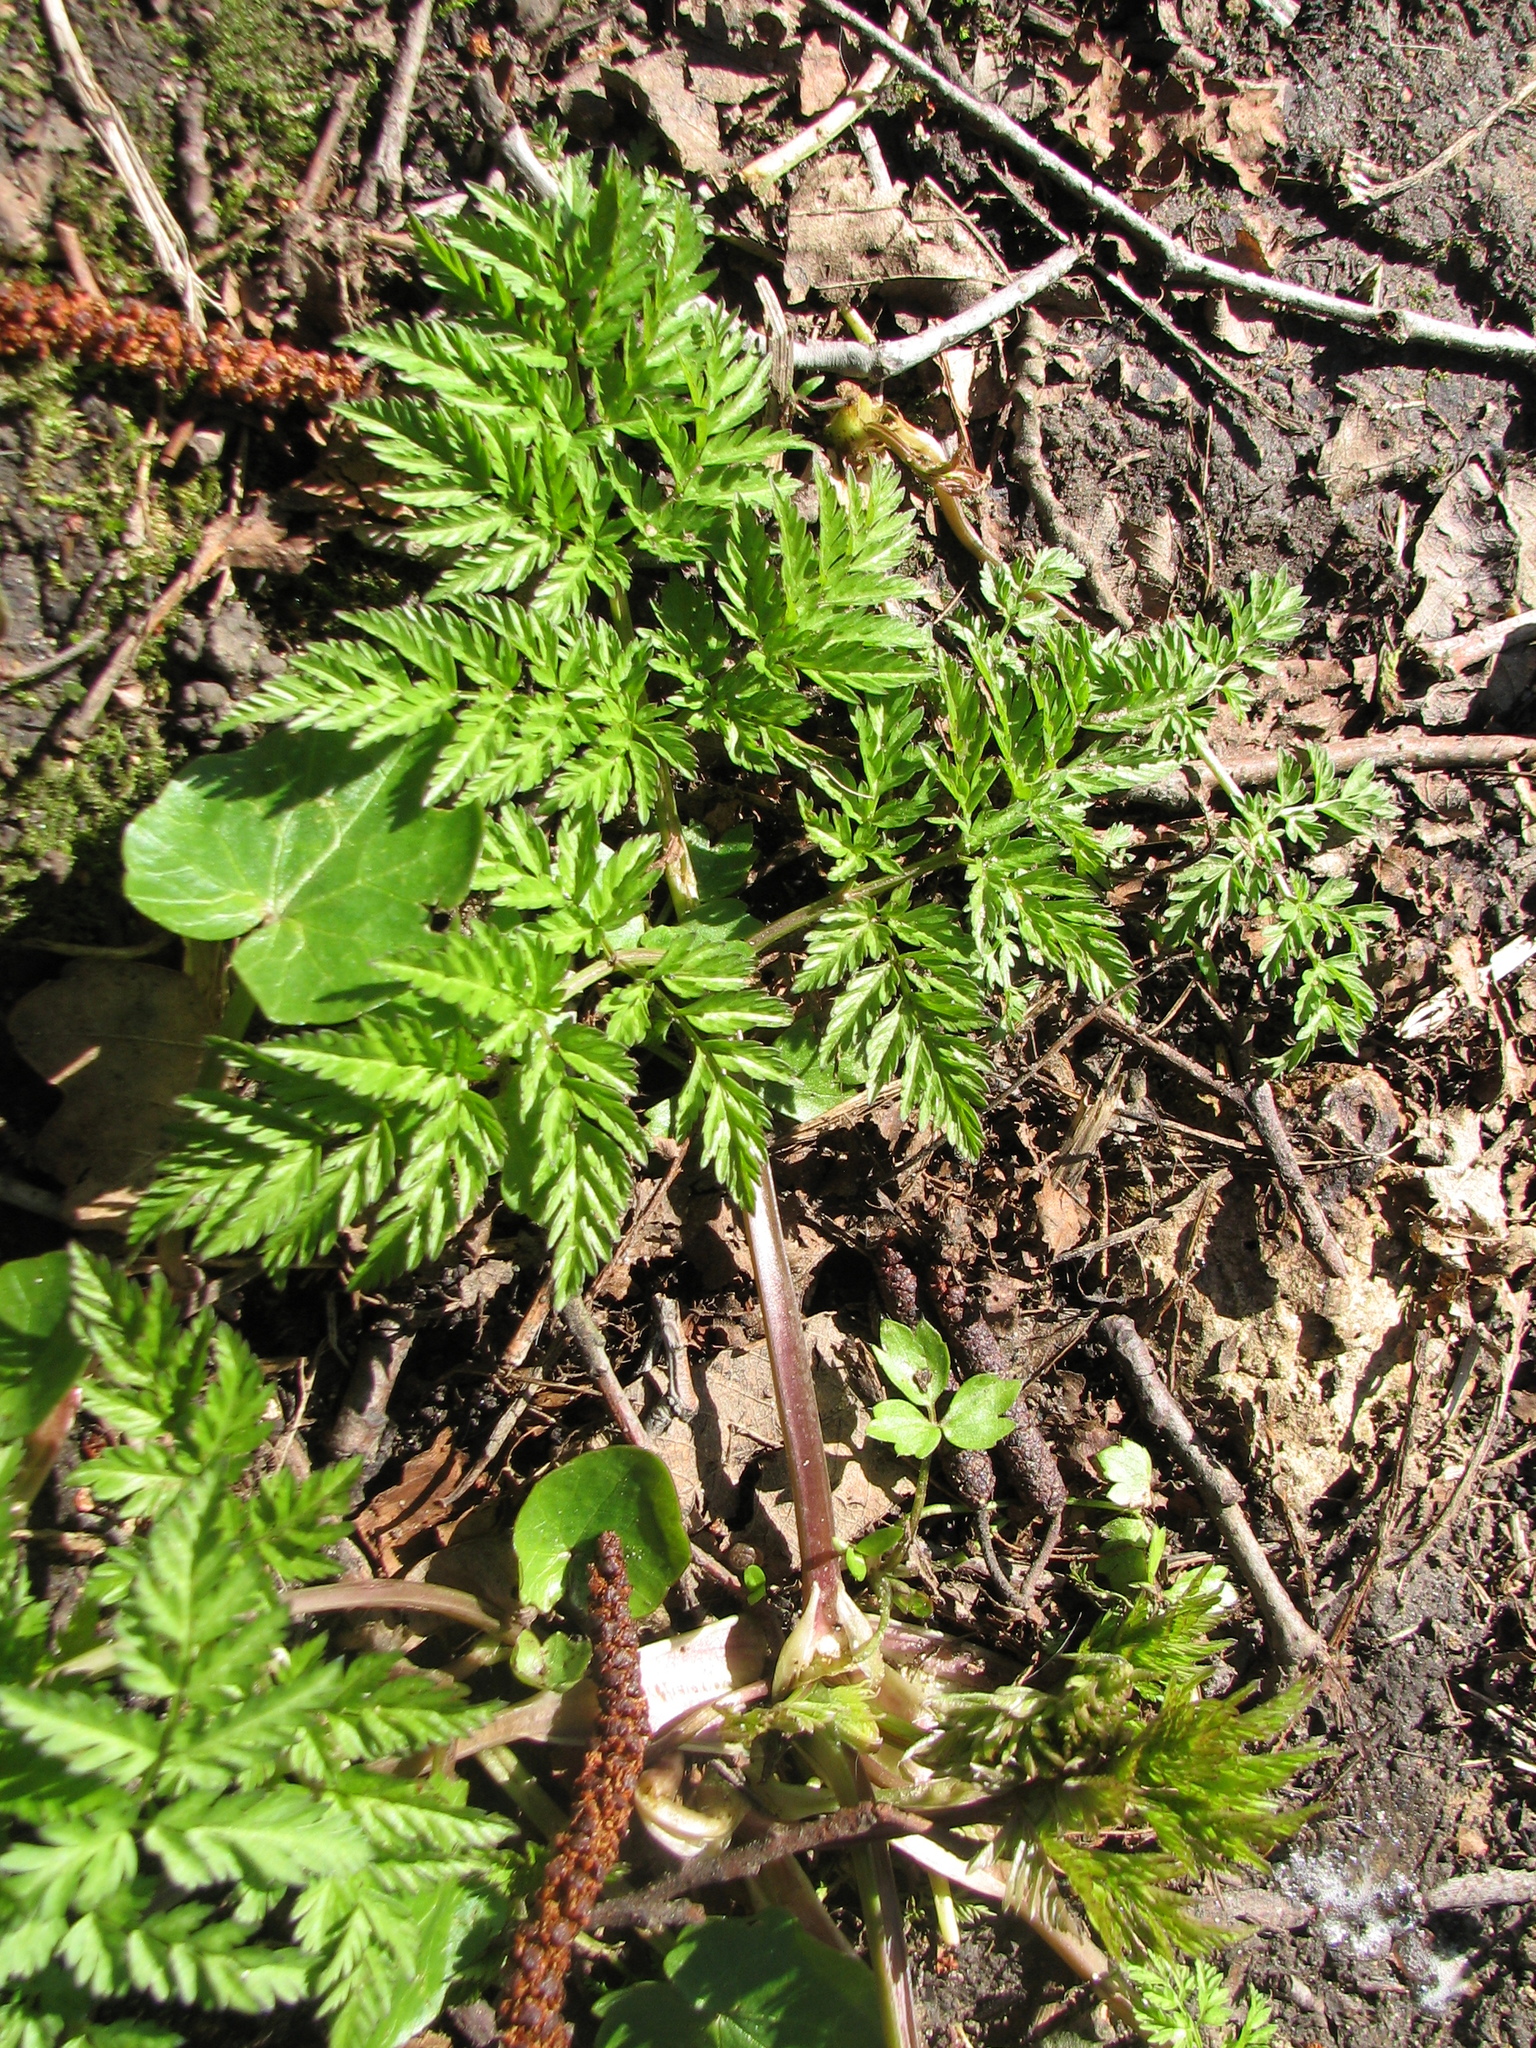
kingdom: Plantae
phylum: Tracheophyta
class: Magnoliopsida
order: Apiales
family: Apiaceae
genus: Anthriscus
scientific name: Anthriscus sylvestris
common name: Cow parsley
